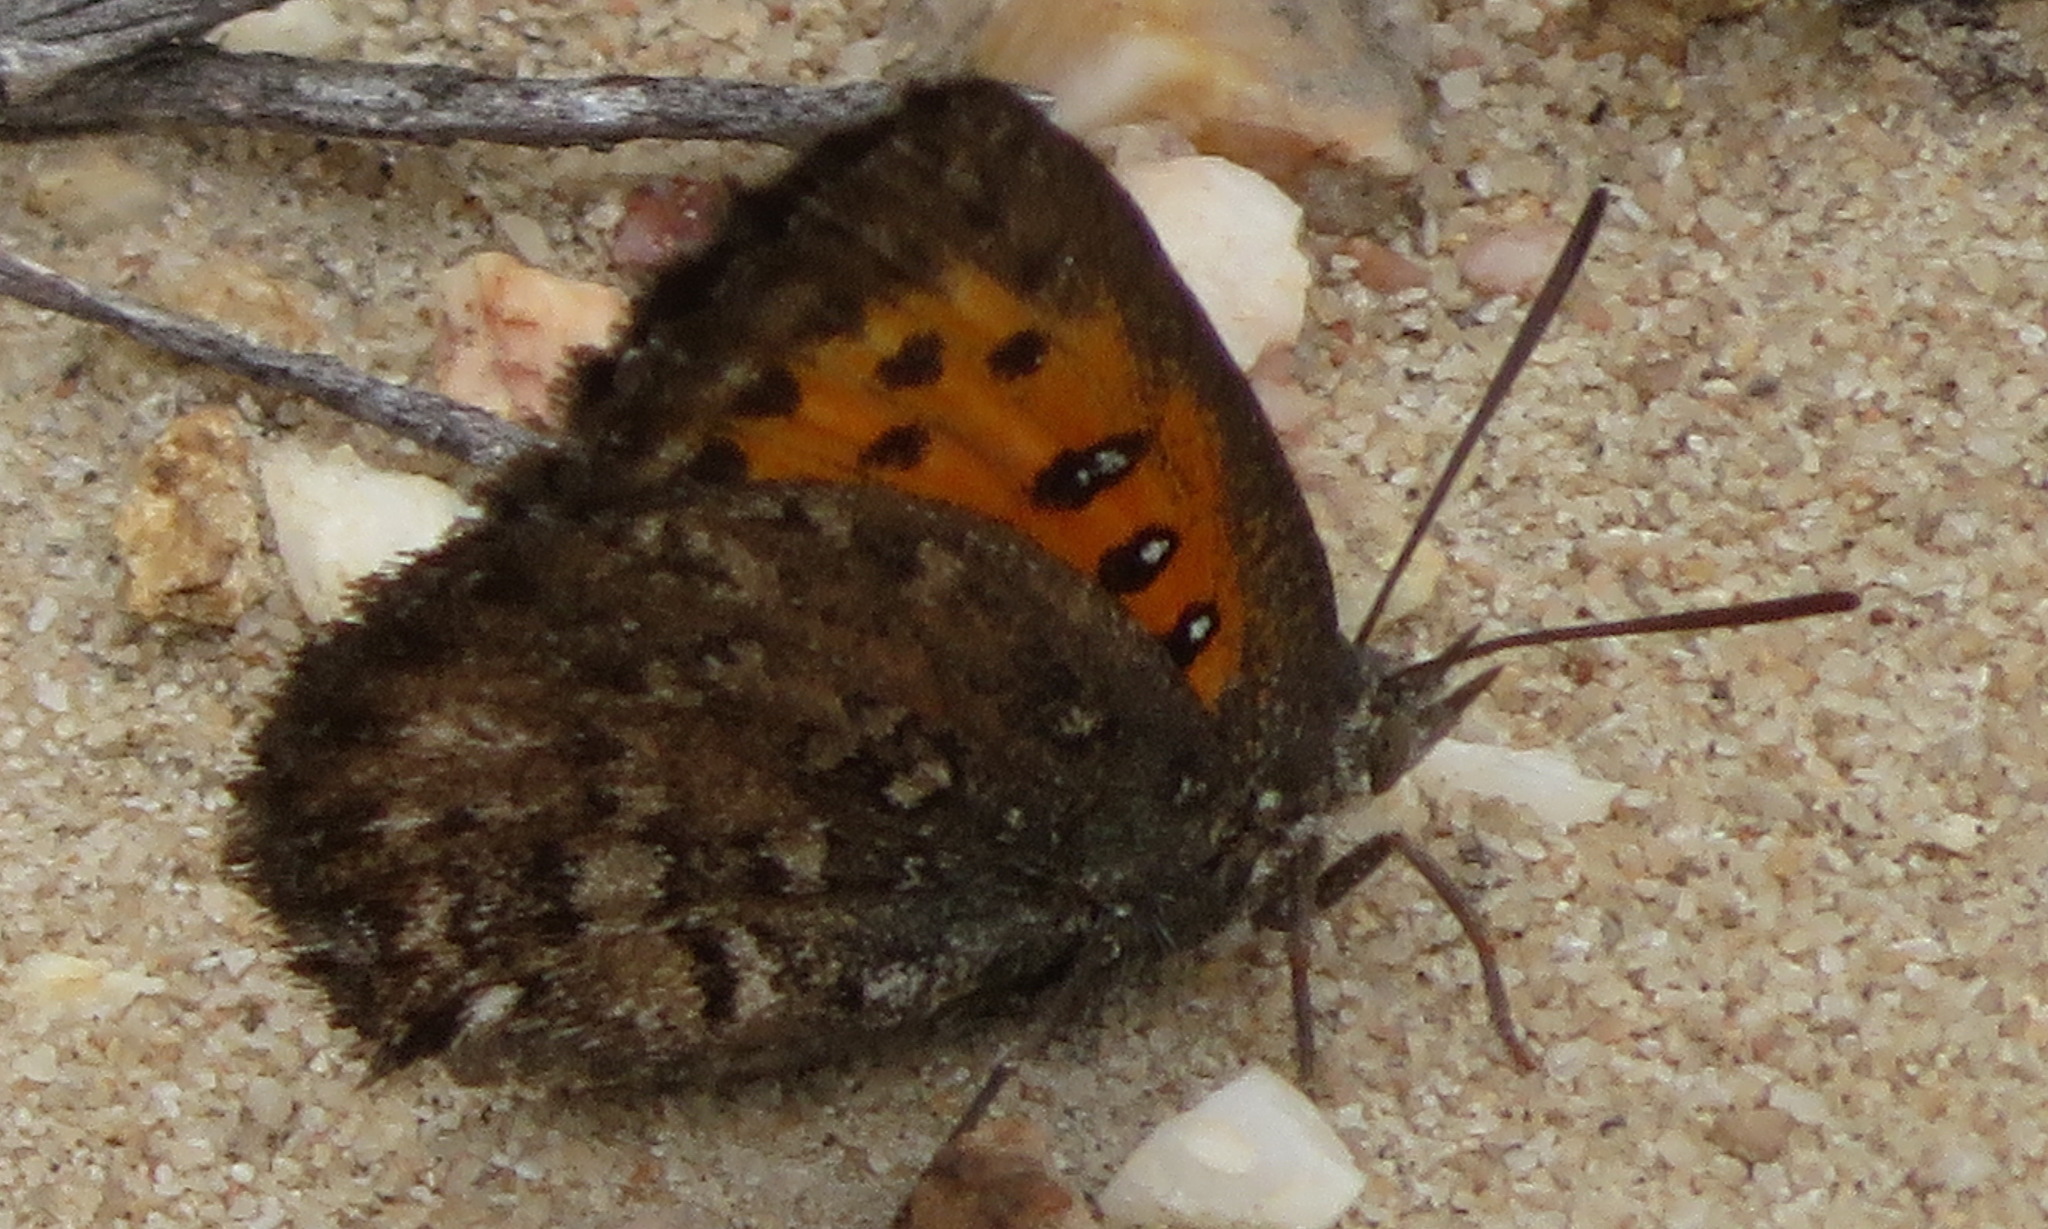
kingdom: Animalia
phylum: Arthropoda
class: Insecta
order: Lepidoptera
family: Lycaenidae
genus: Axiocerses
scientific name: Axiocerses thyra
